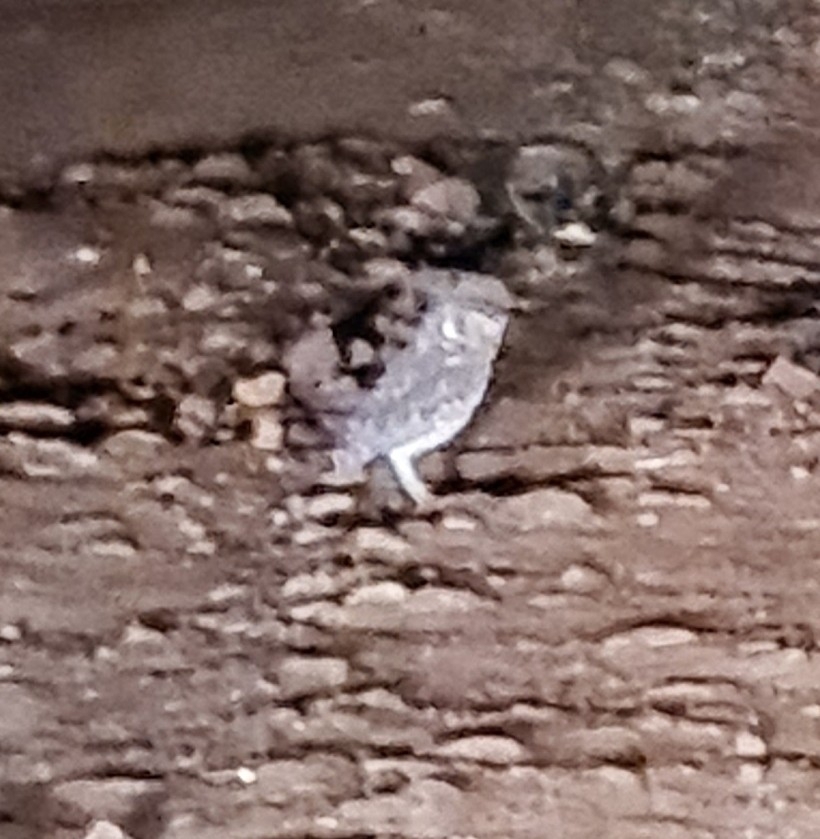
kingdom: Animalia
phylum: Chordata
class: Aves
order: Strigiformes
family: Strigidae
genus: Athene
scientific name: Athene cunicularia
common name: Burrowing owl
